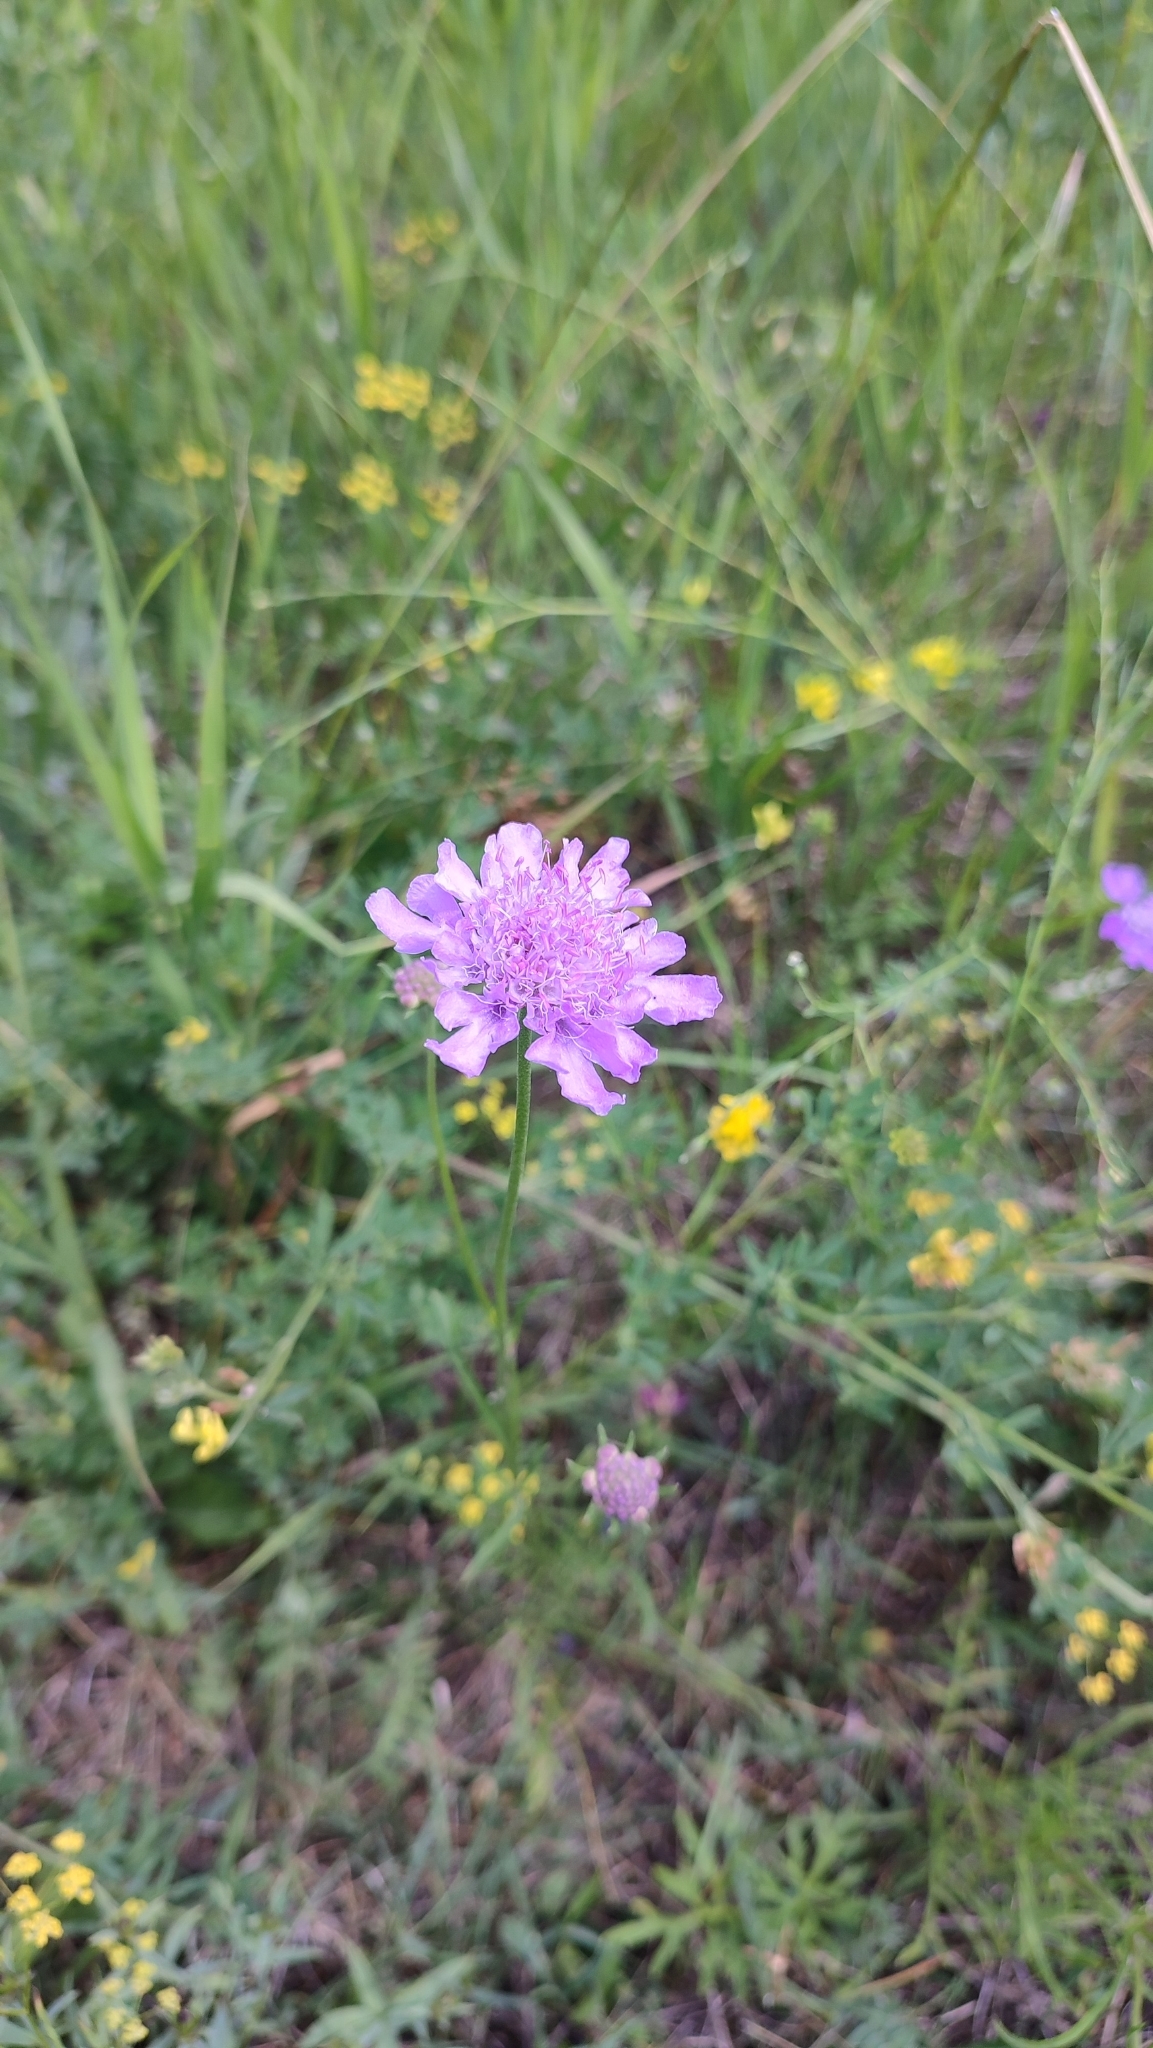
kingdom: Plantae
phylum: Tracheophyta
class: Magnoliopsida
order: Dipsacales
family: Caprifoliaceae
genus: Scabiosa
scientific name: Scabiosa comosa
